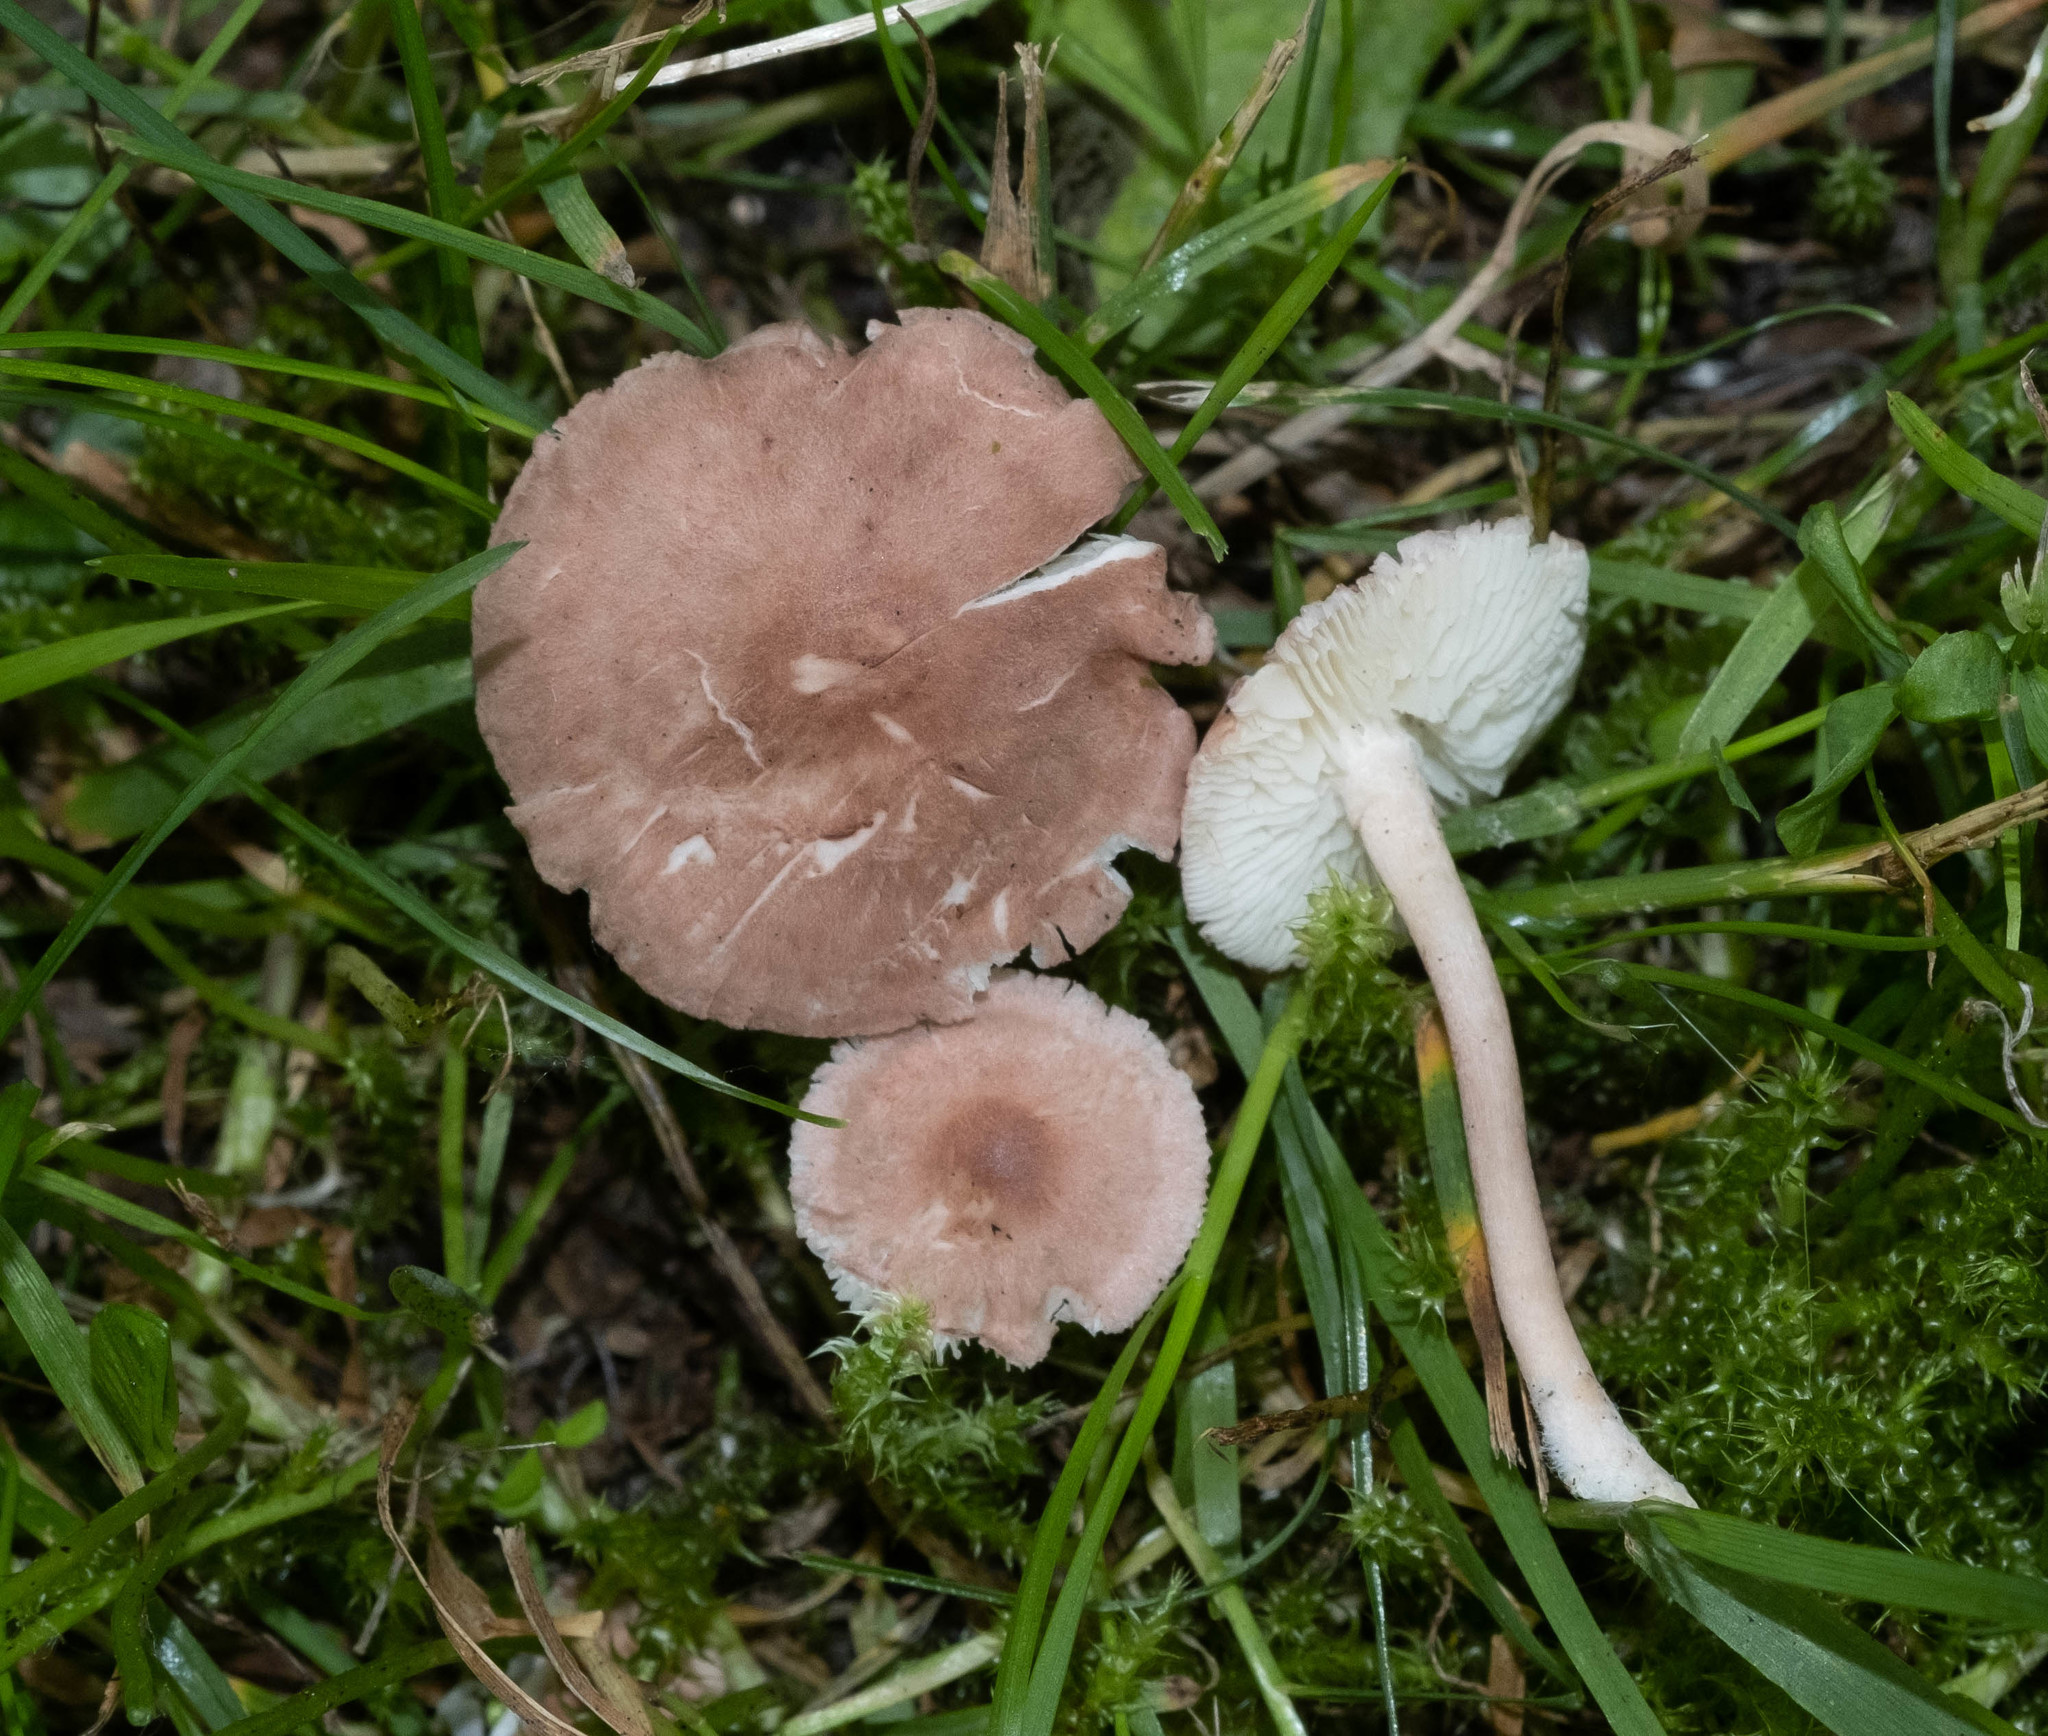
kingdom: Fungi
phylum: Basidiomycota
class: Agaricomycetes
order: Agaricales
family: Lyophyllaceae
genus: Calocybe
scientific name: Calocybe carnea
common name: Pink domecap
